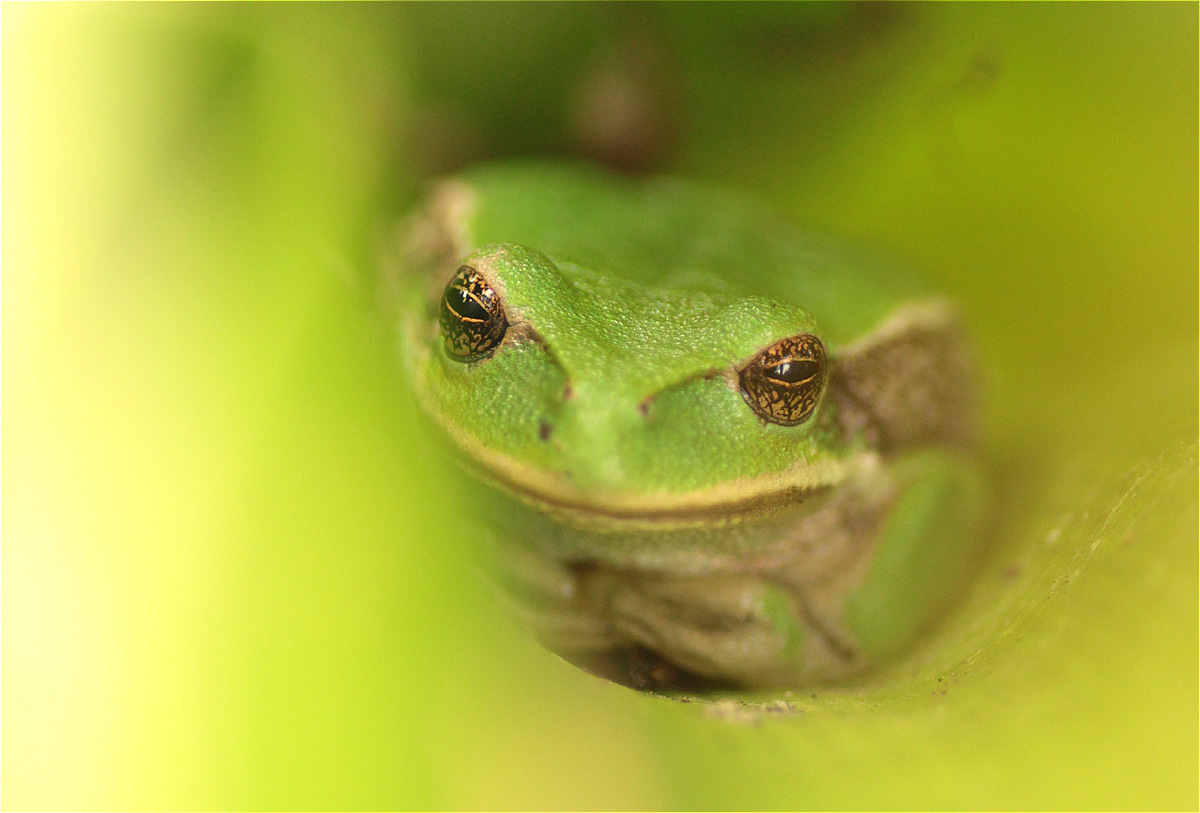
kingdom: Animalia
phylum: Chordata
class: Amphibia
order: Anura
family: Hemiphractidae
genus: Gastrotheca
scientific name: Gastrotheca cuencana
